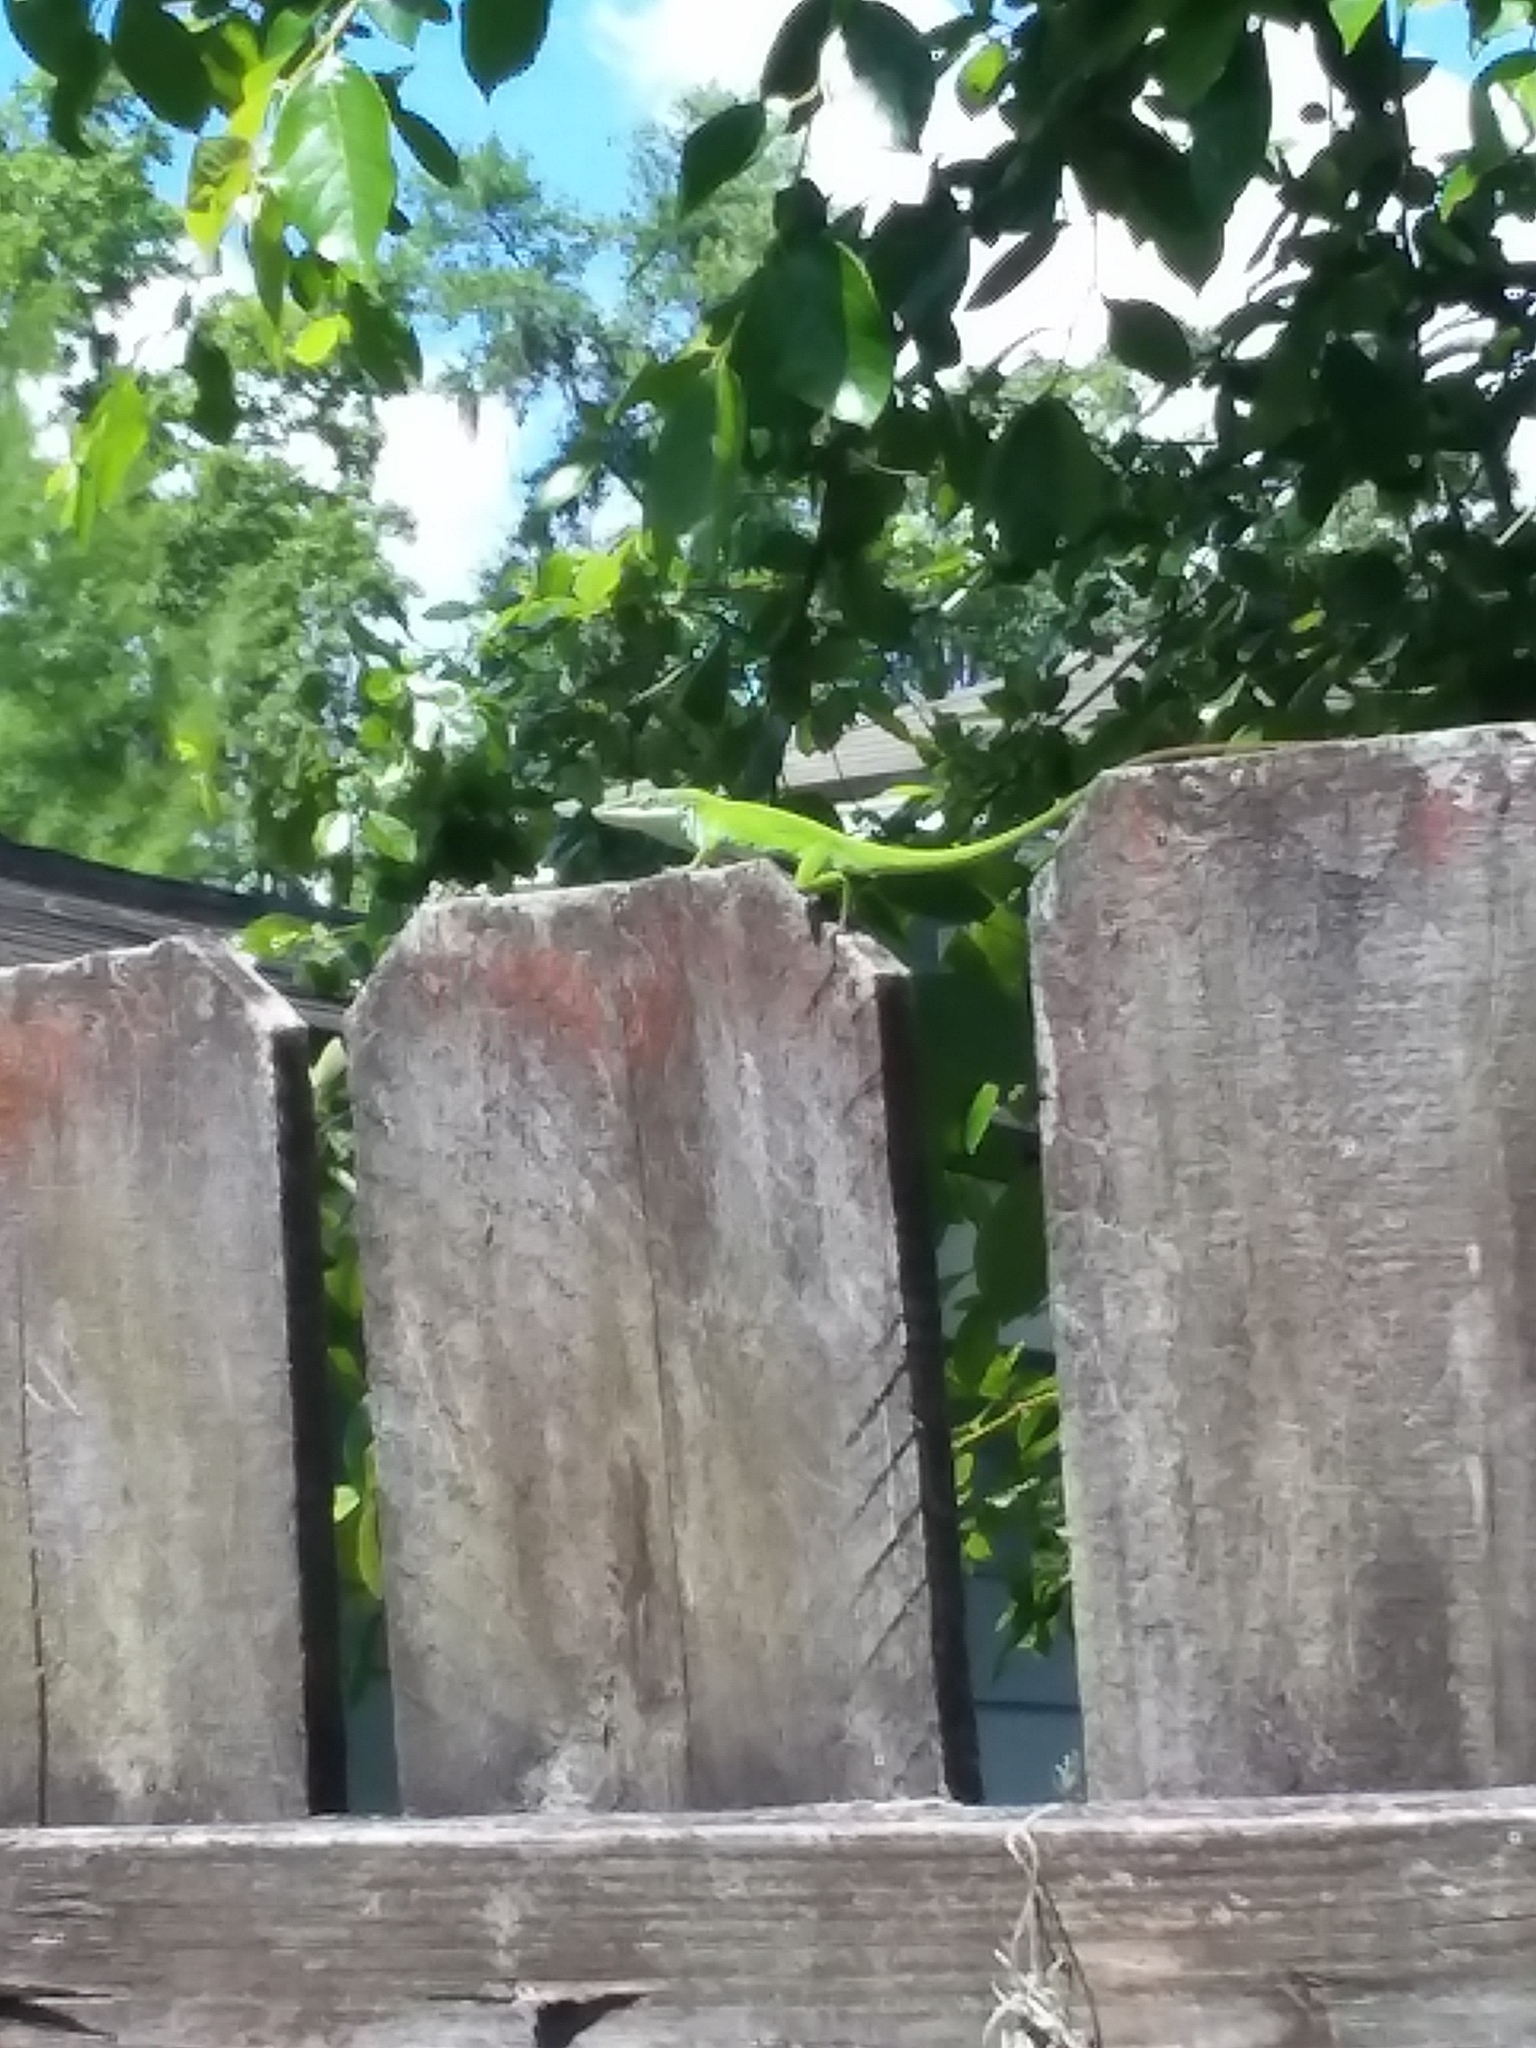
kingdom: Animalia
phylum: Chordata
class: Squamata
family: Dactyloidae
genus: Anolis
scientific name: Anolis carolinensis
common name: Green anole
